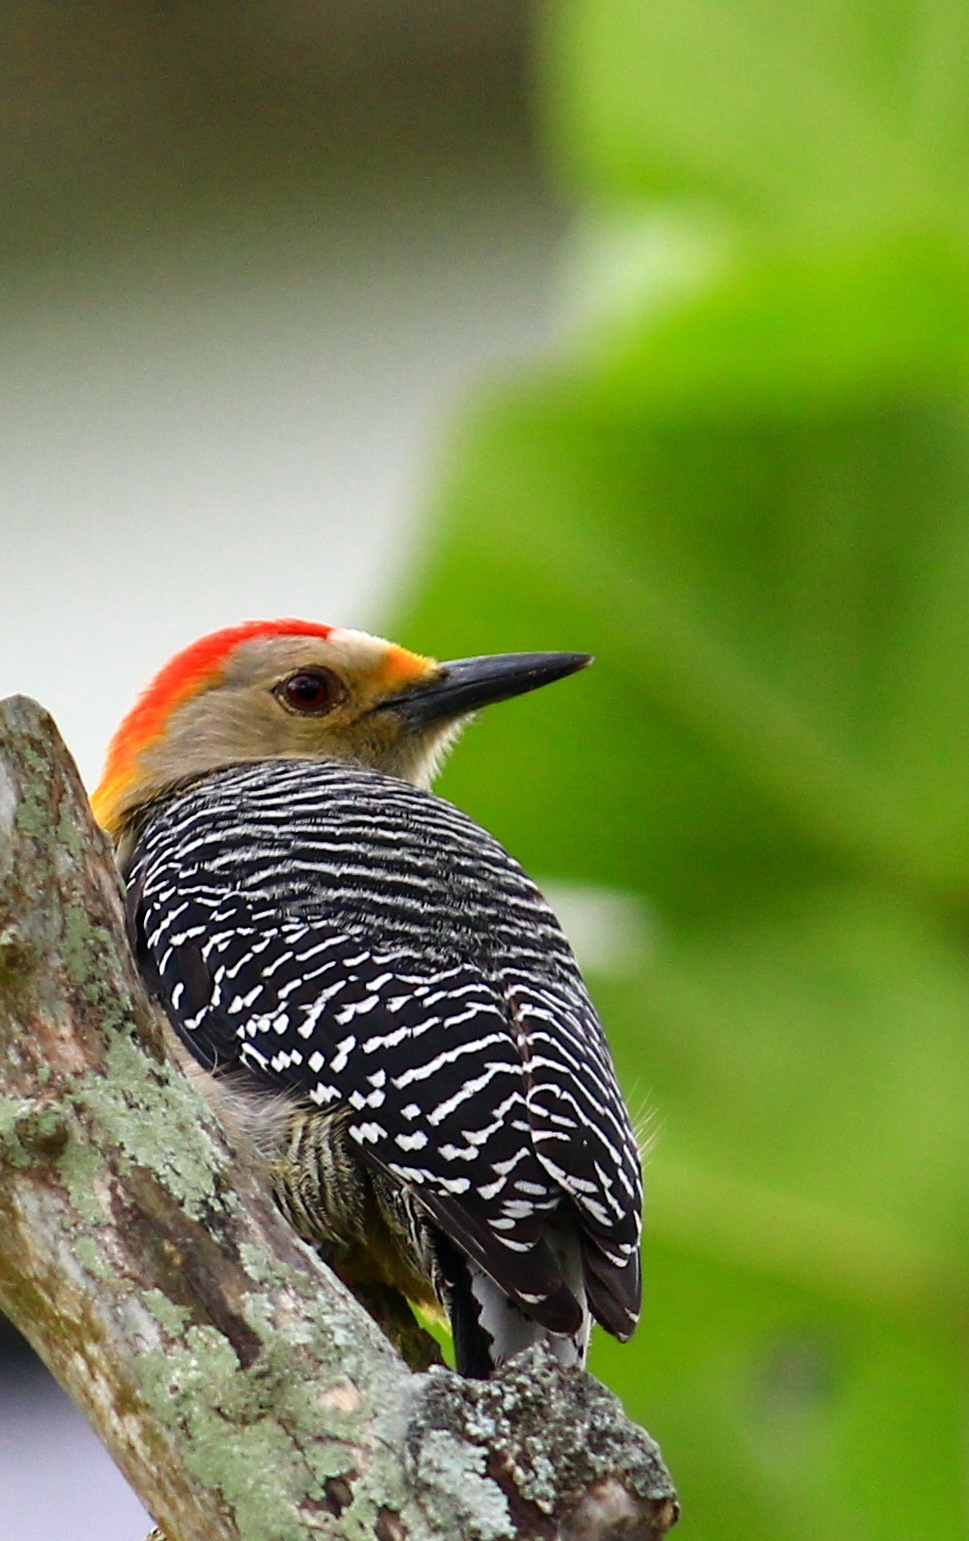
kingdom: Animalia
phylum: Chordata
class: Aves
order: Piciformes
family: Picidae
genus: Melanerpes
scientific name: Melanerpes aurifrons
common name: Golden-fronted woodpecker
